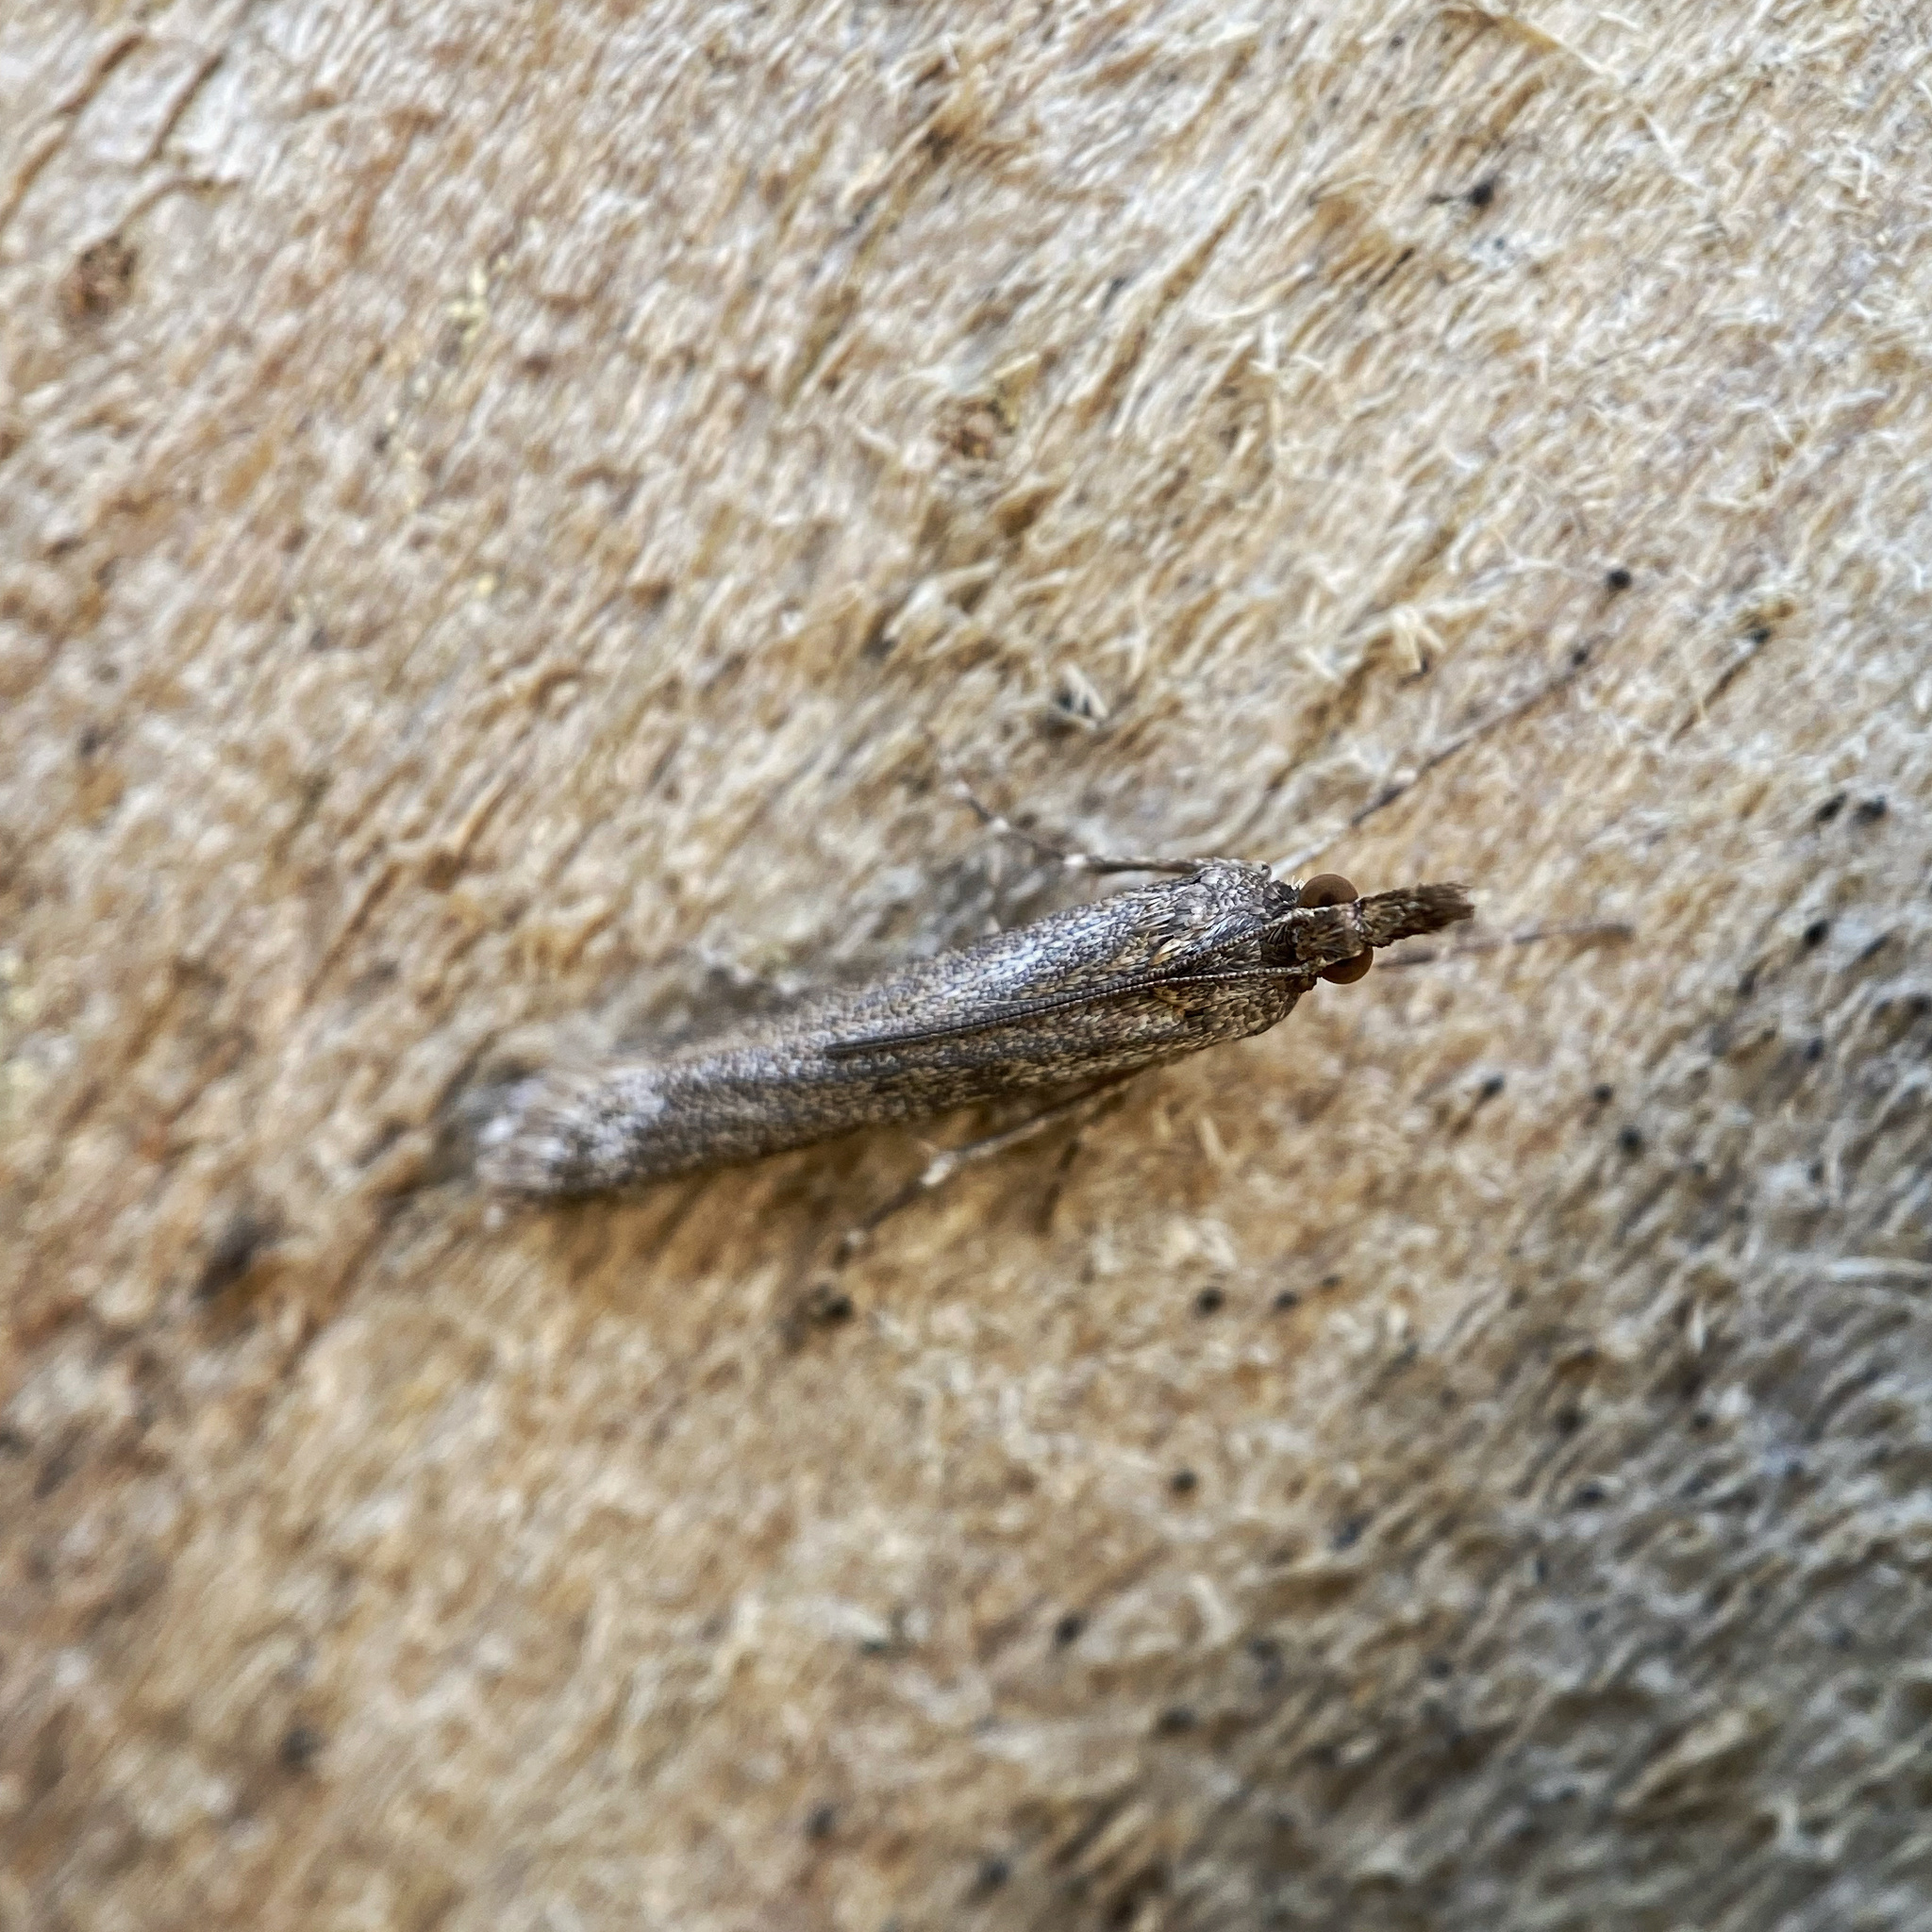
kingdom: Animalia
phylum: Arthropoda
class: Insecta
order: Lepidoptera
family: Crambidae
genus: Eudonia
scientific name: Eudonia leptalea
